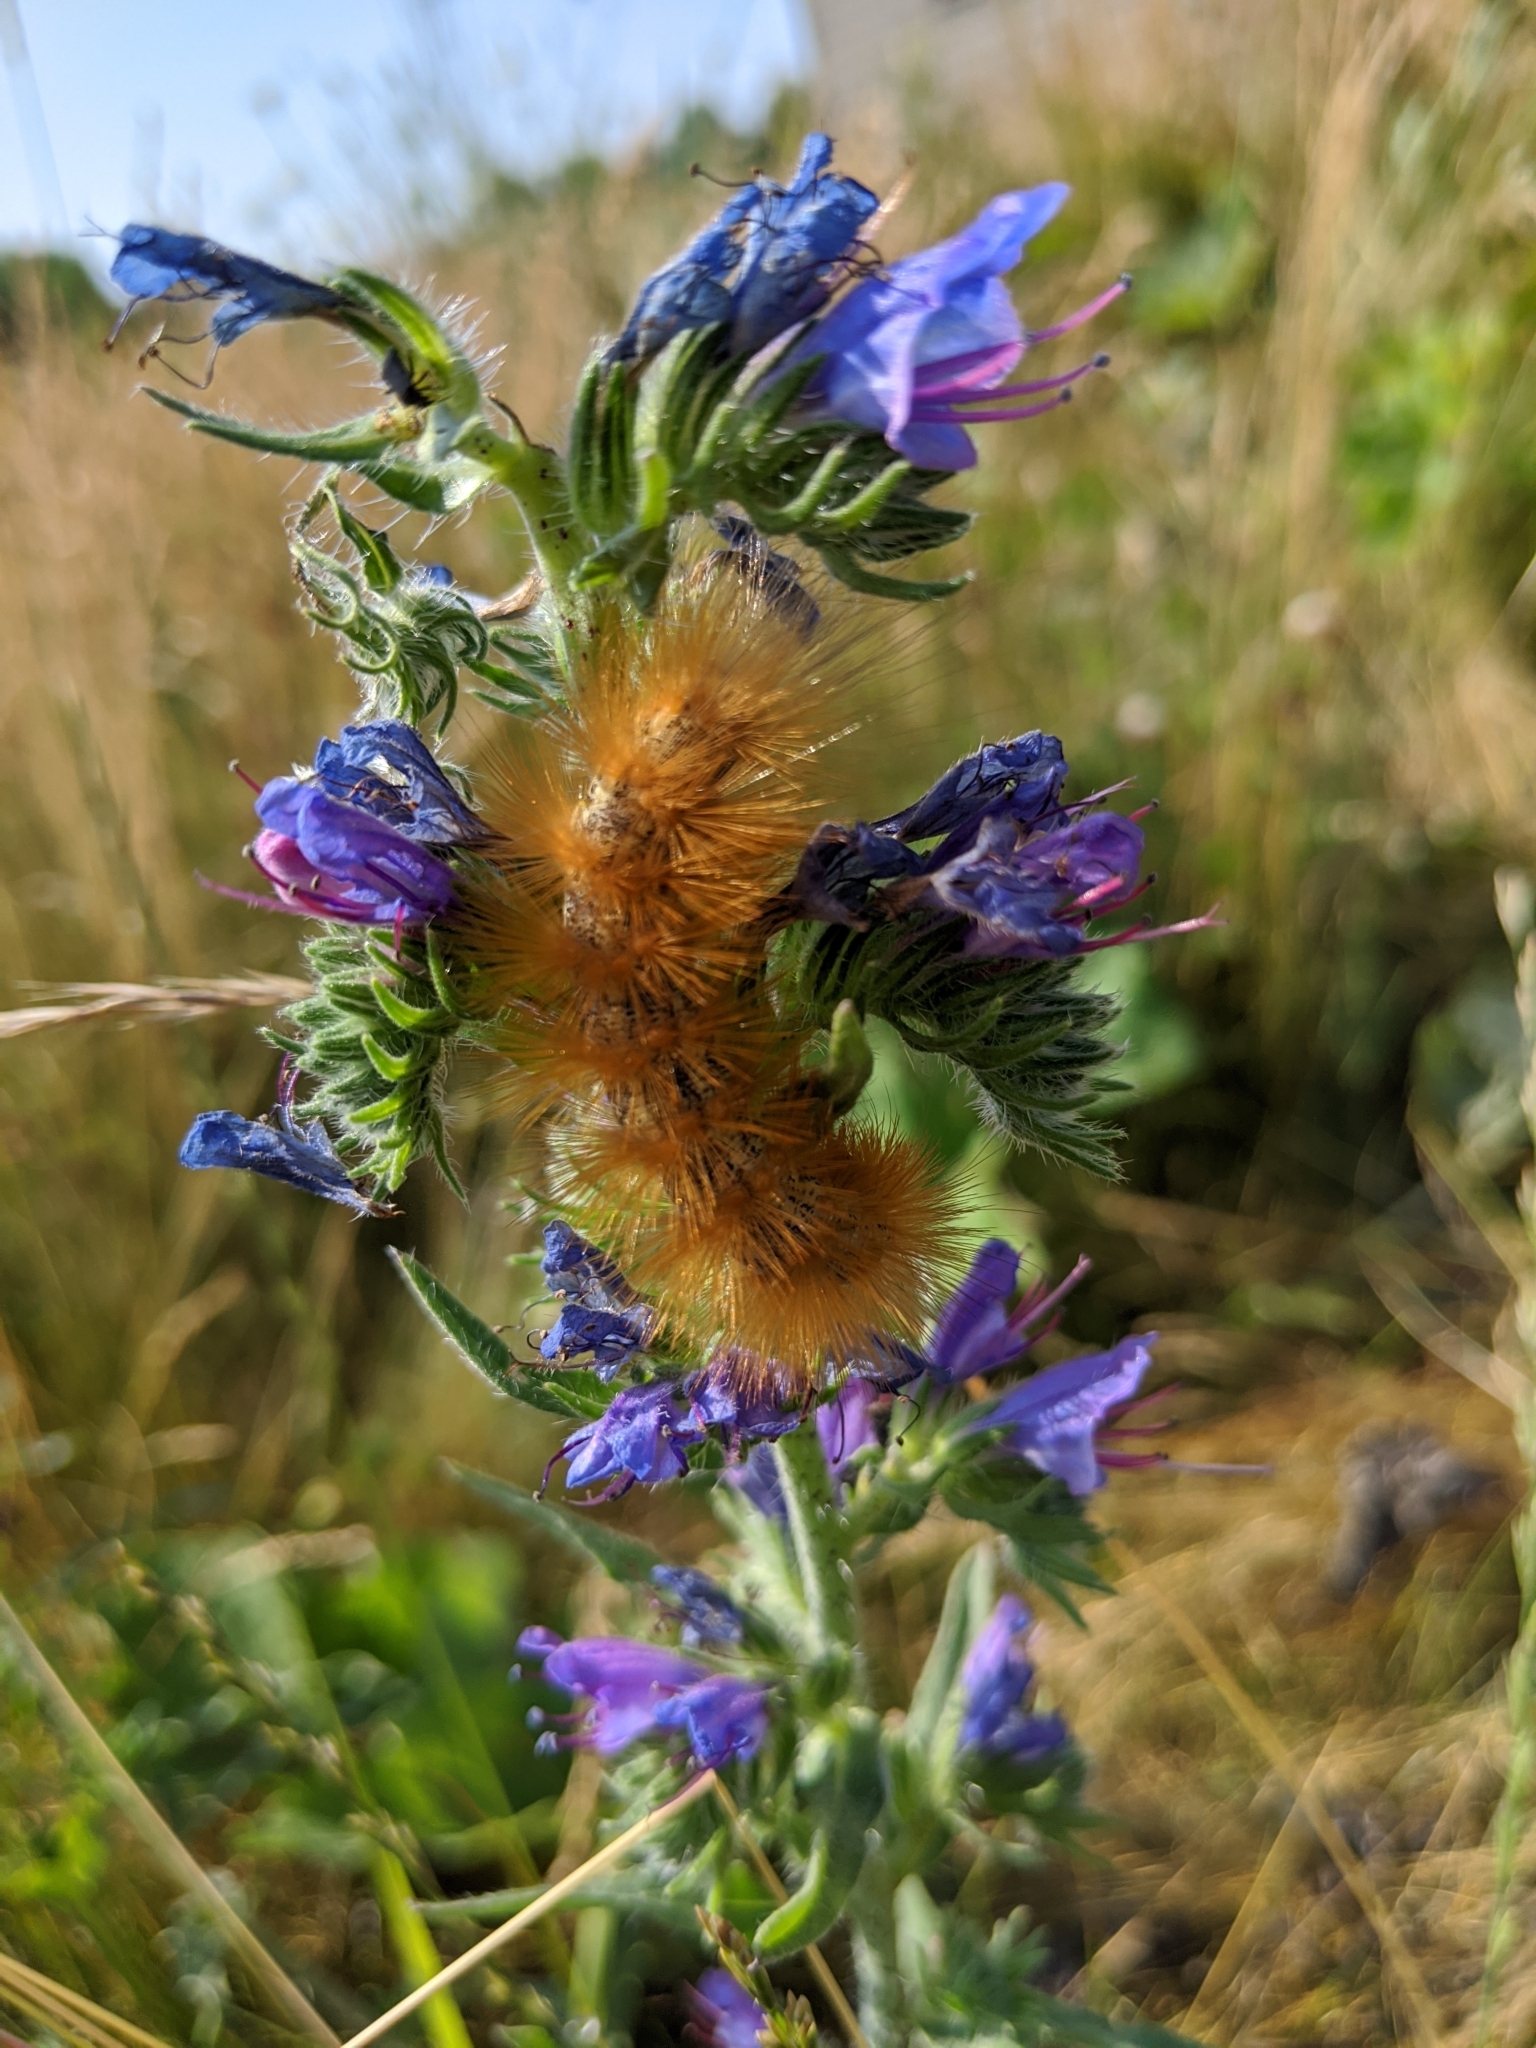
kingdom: Animalia
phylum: Arthropoda
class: Insecta
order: Lepidoptera
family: Erebidae
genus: Estigmene
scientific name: Estigmene acrea
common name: Salt marsh moth
